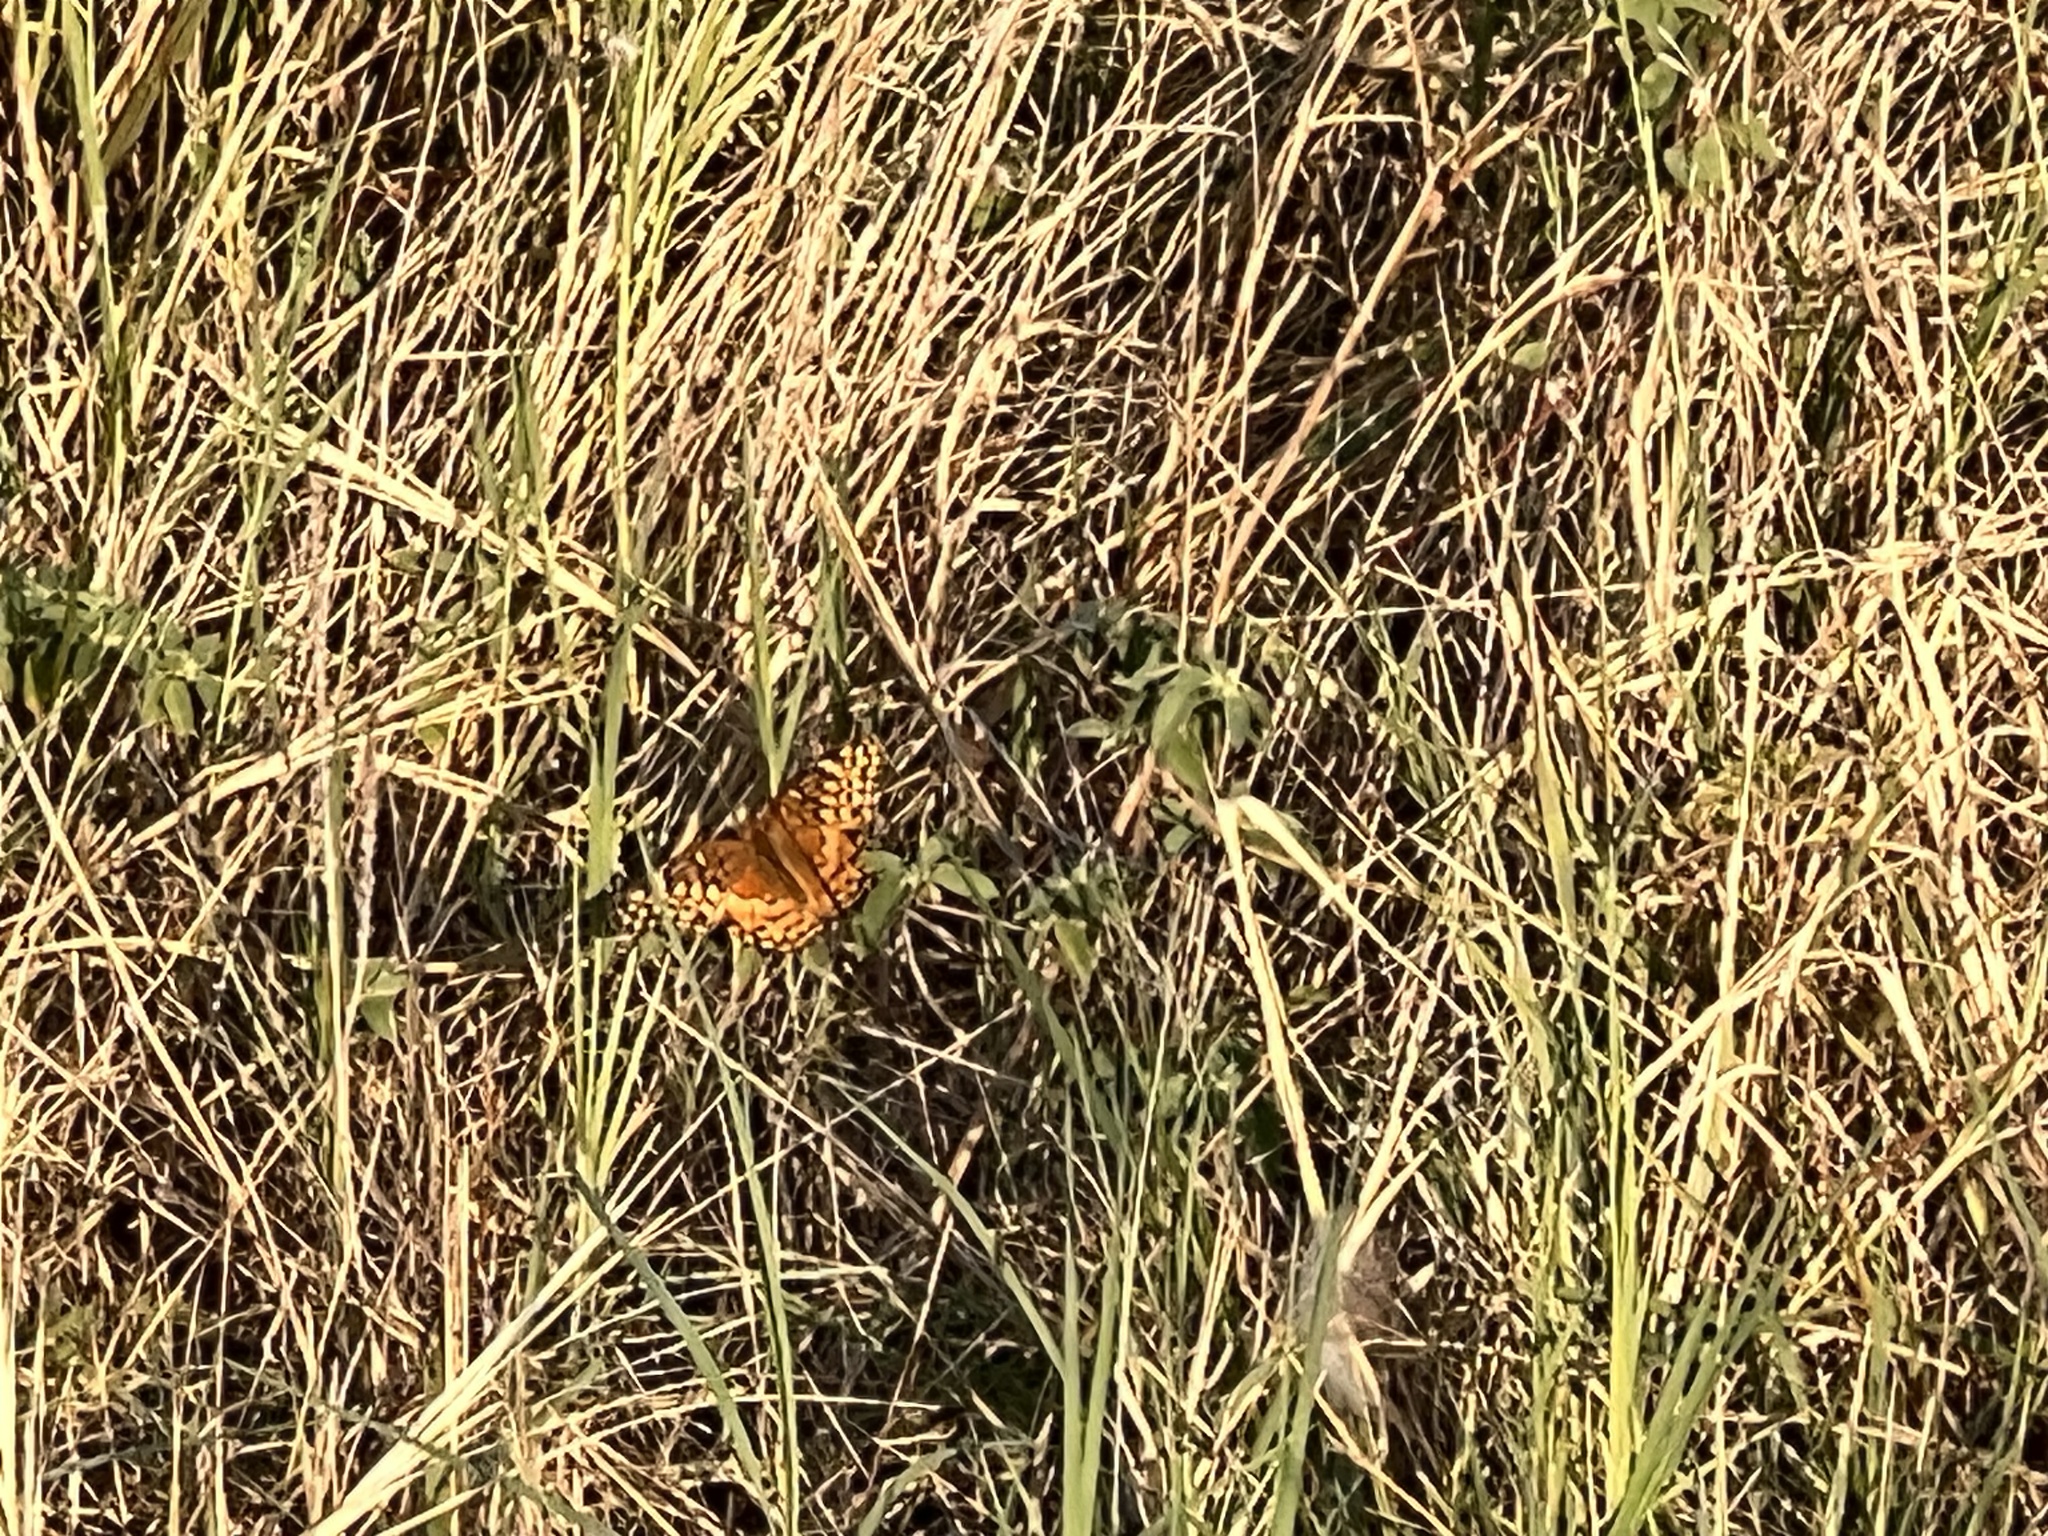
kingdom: Animalia
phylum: Arthropoda
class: Insecta
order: Lepidoptera
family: Nymphalidae
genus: Euptoieta
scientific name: Euptoieta claudia
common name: Variegated fritillary
